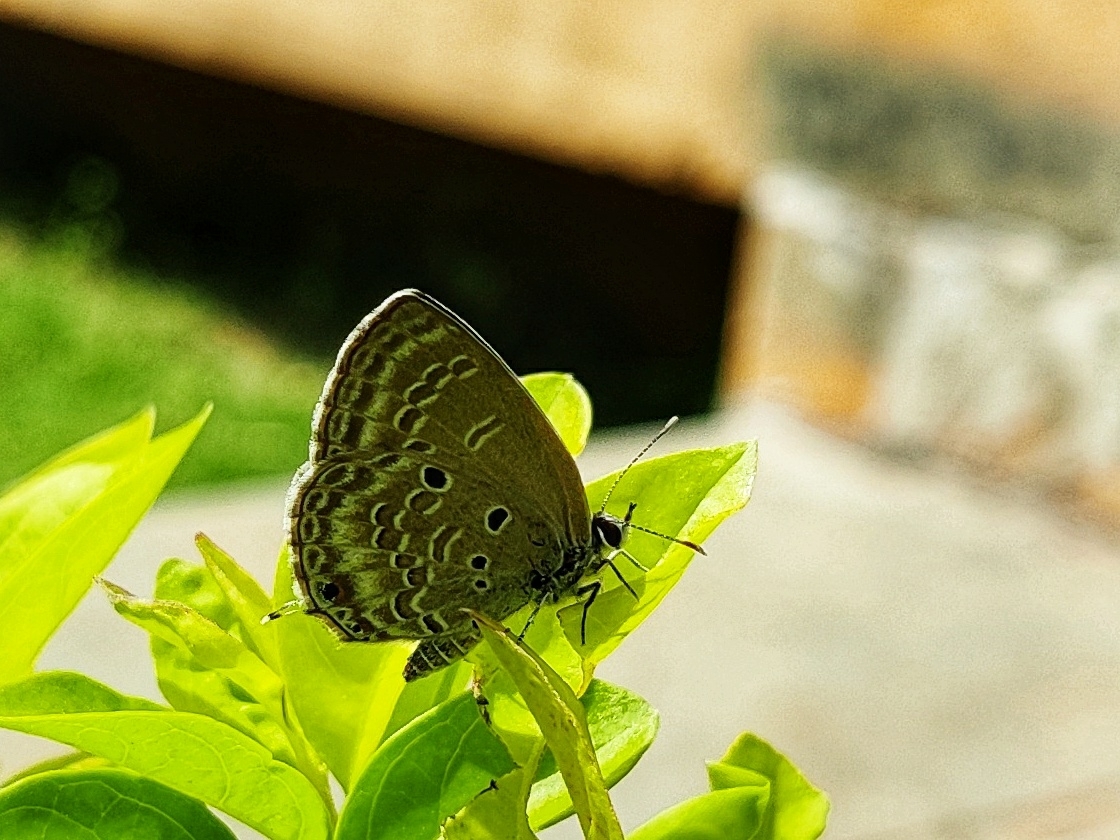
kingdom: Animalia
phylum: Arthropoda
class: Insecta
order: Lepidoptera
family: Lycaenidae
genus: Luthrodes
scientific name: Luthrodes pandava
